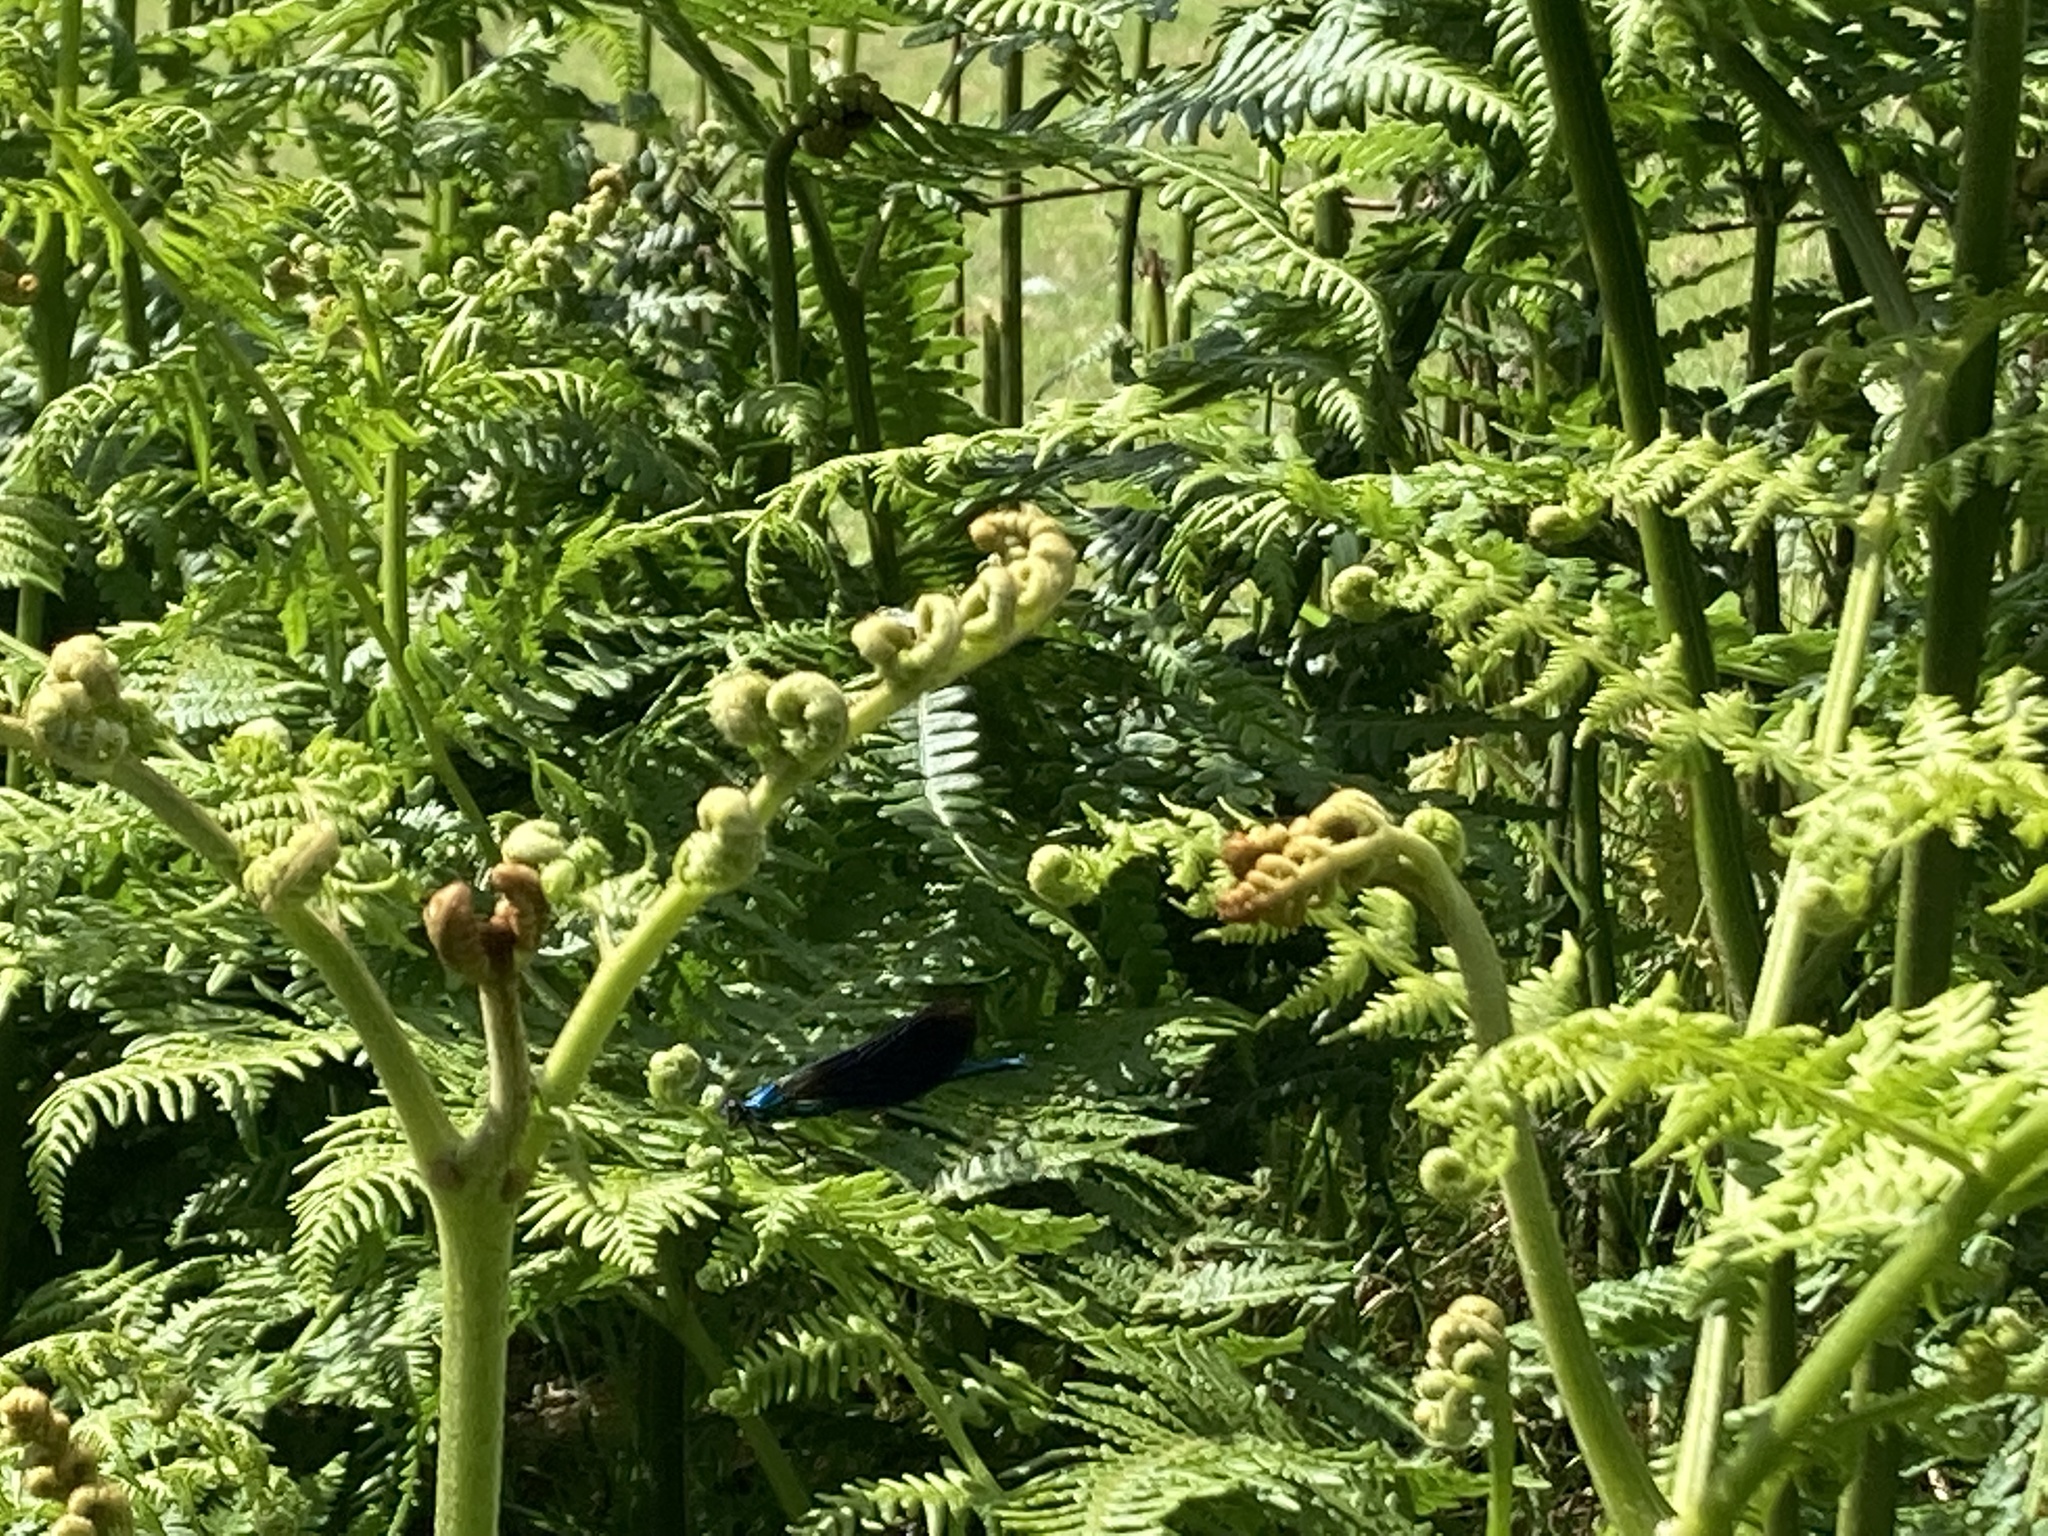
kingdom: Animalia
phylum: Arthropoda
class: Insecta
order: Odonata
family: Calopterygidae
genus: Calopteryx
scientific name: Calopteryx virgo
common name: Beautiful demoiselle
